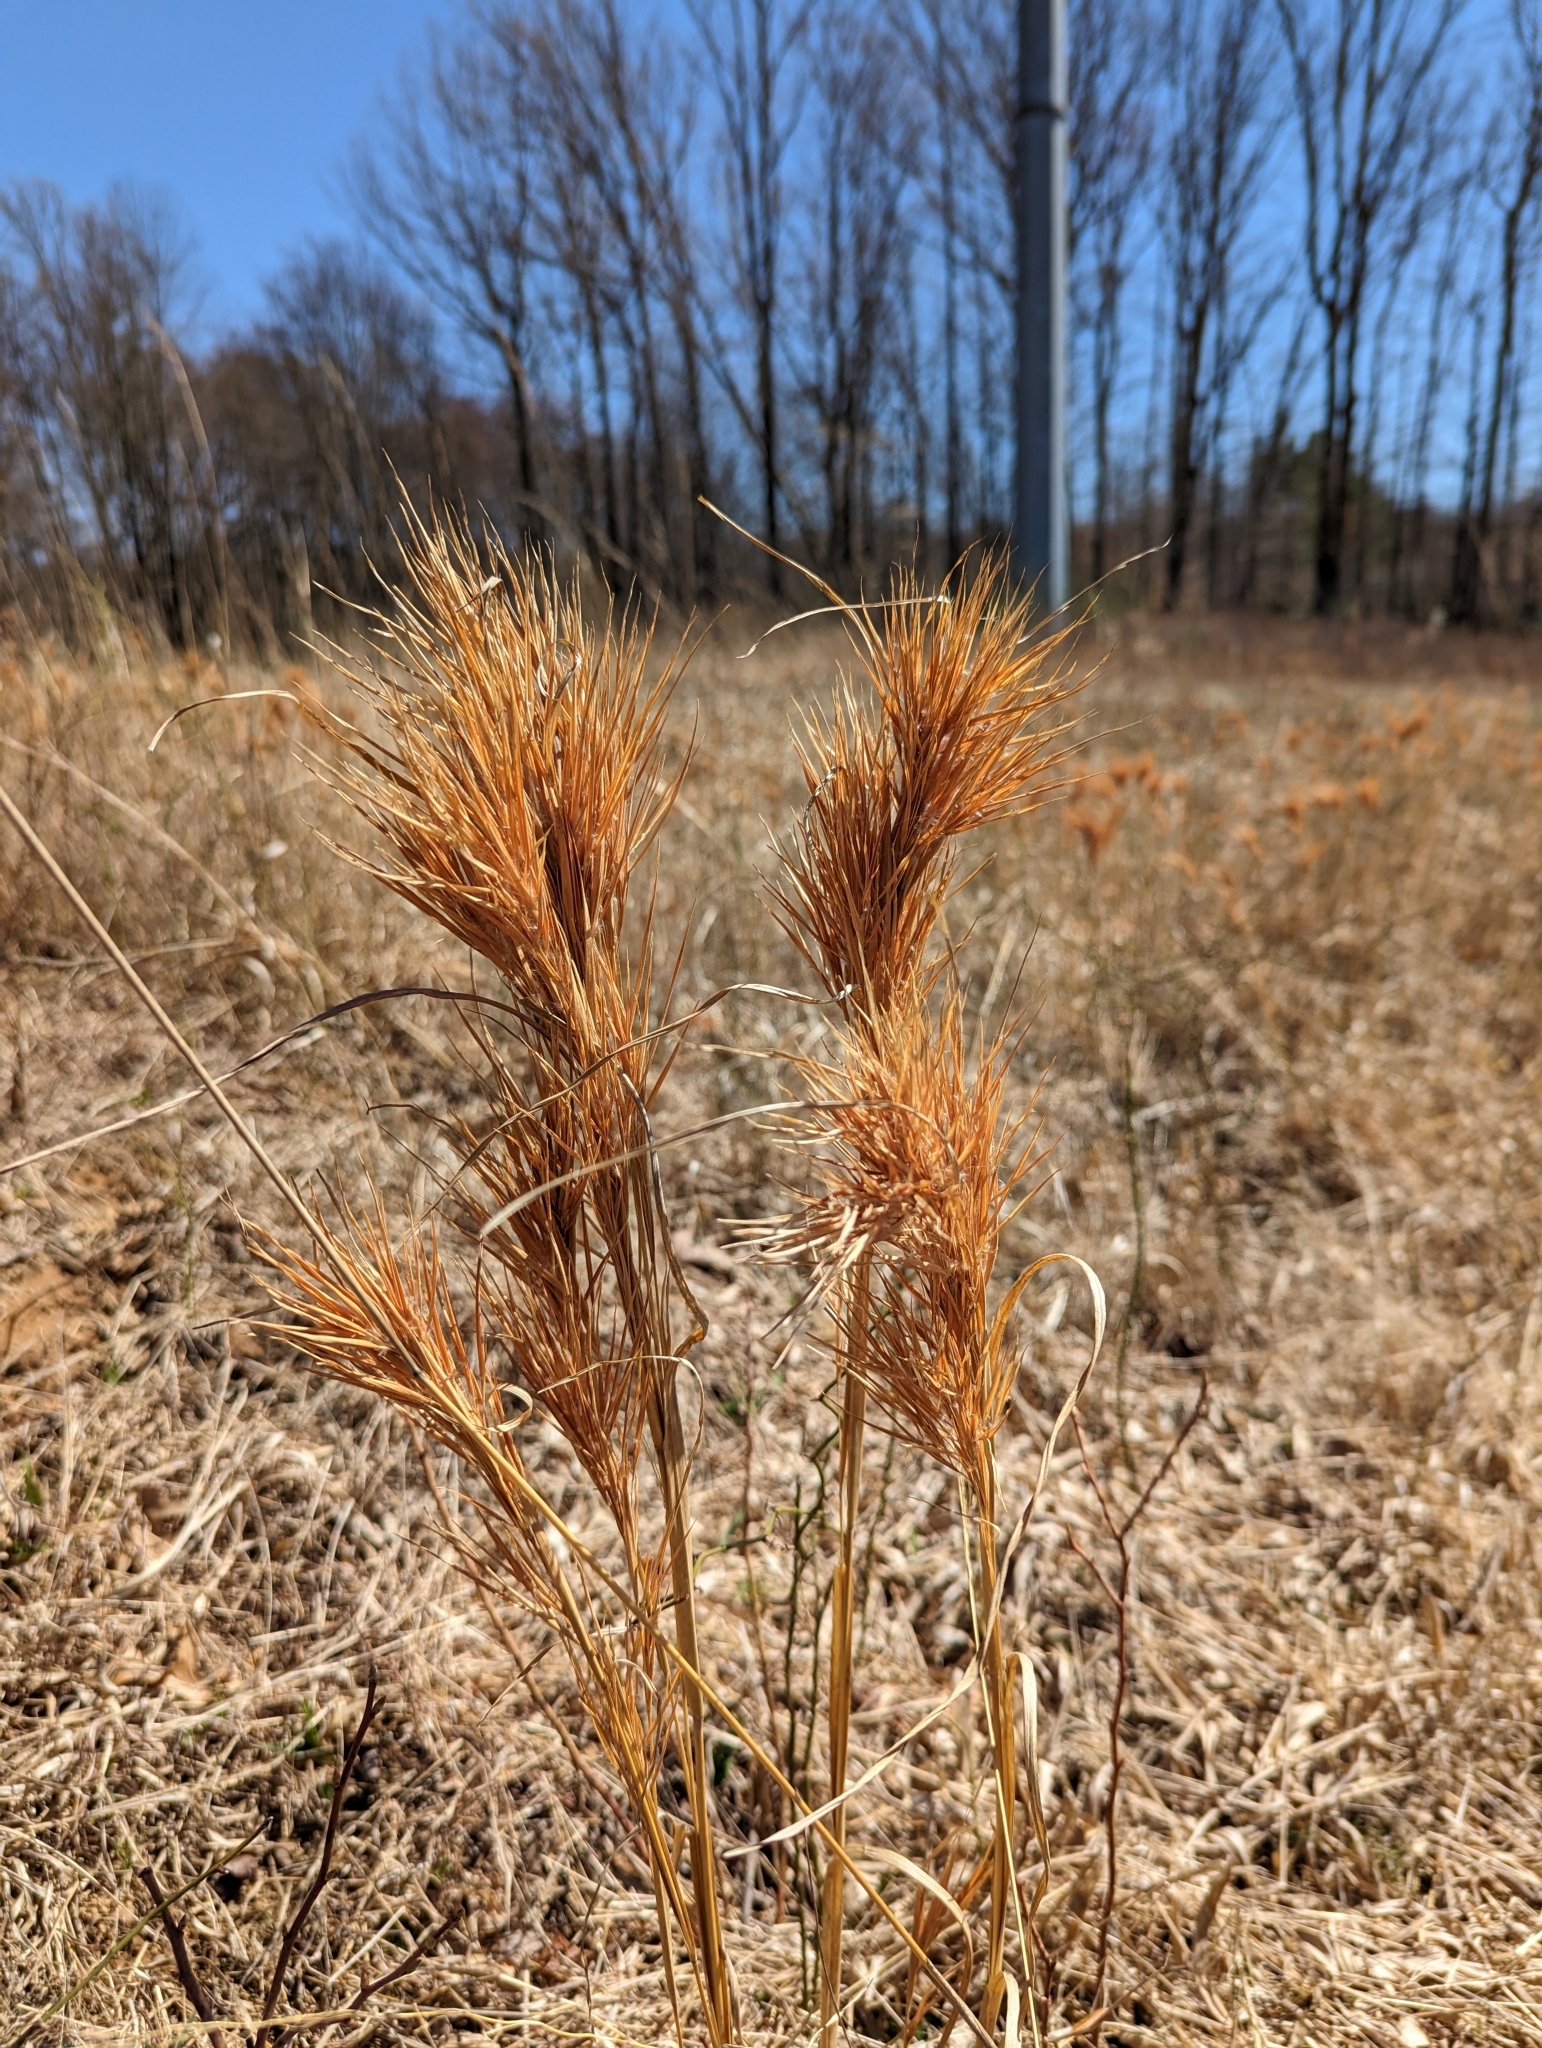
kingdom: Plantae
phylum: Tracheophyta
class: Liliopsida
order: Poales
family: Poaceae
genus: Andropogon
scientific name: Andropogon glomeratus
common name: Bushy beard grass
